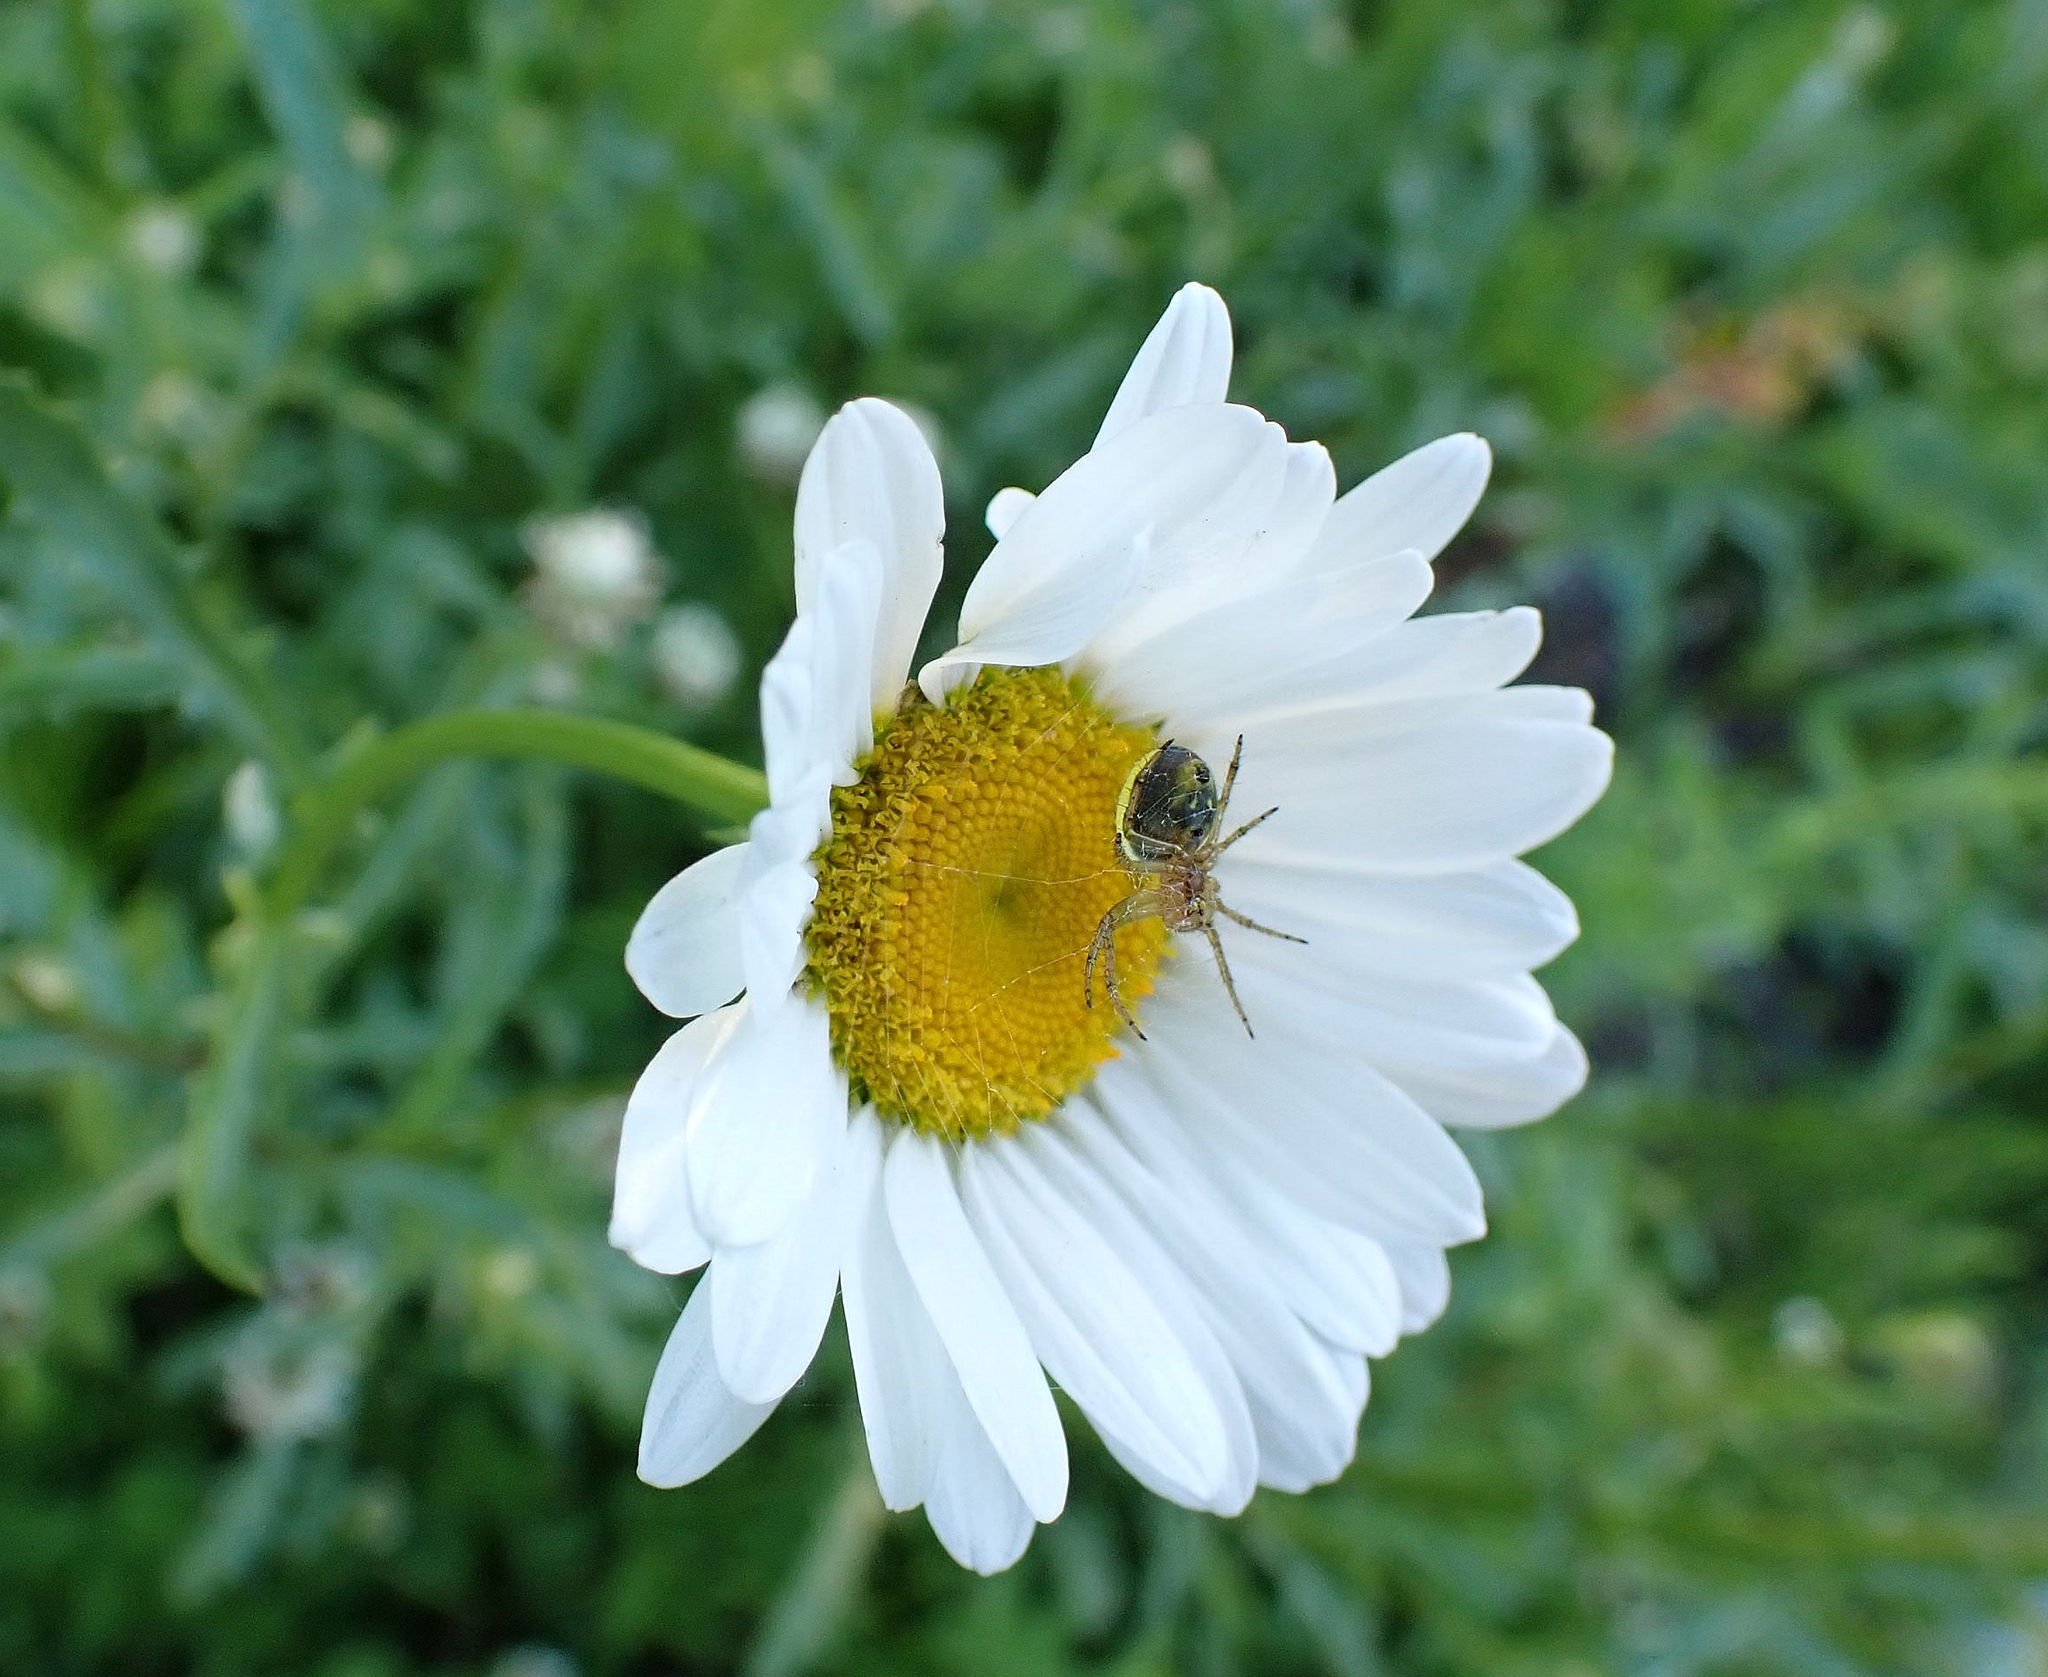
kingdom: Animalia
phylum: Arthropoda
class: Arachnida
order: Araneae
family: Araneidae
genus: Araniella
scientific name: Araniella displicata
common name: Sixspotted orb weaver
